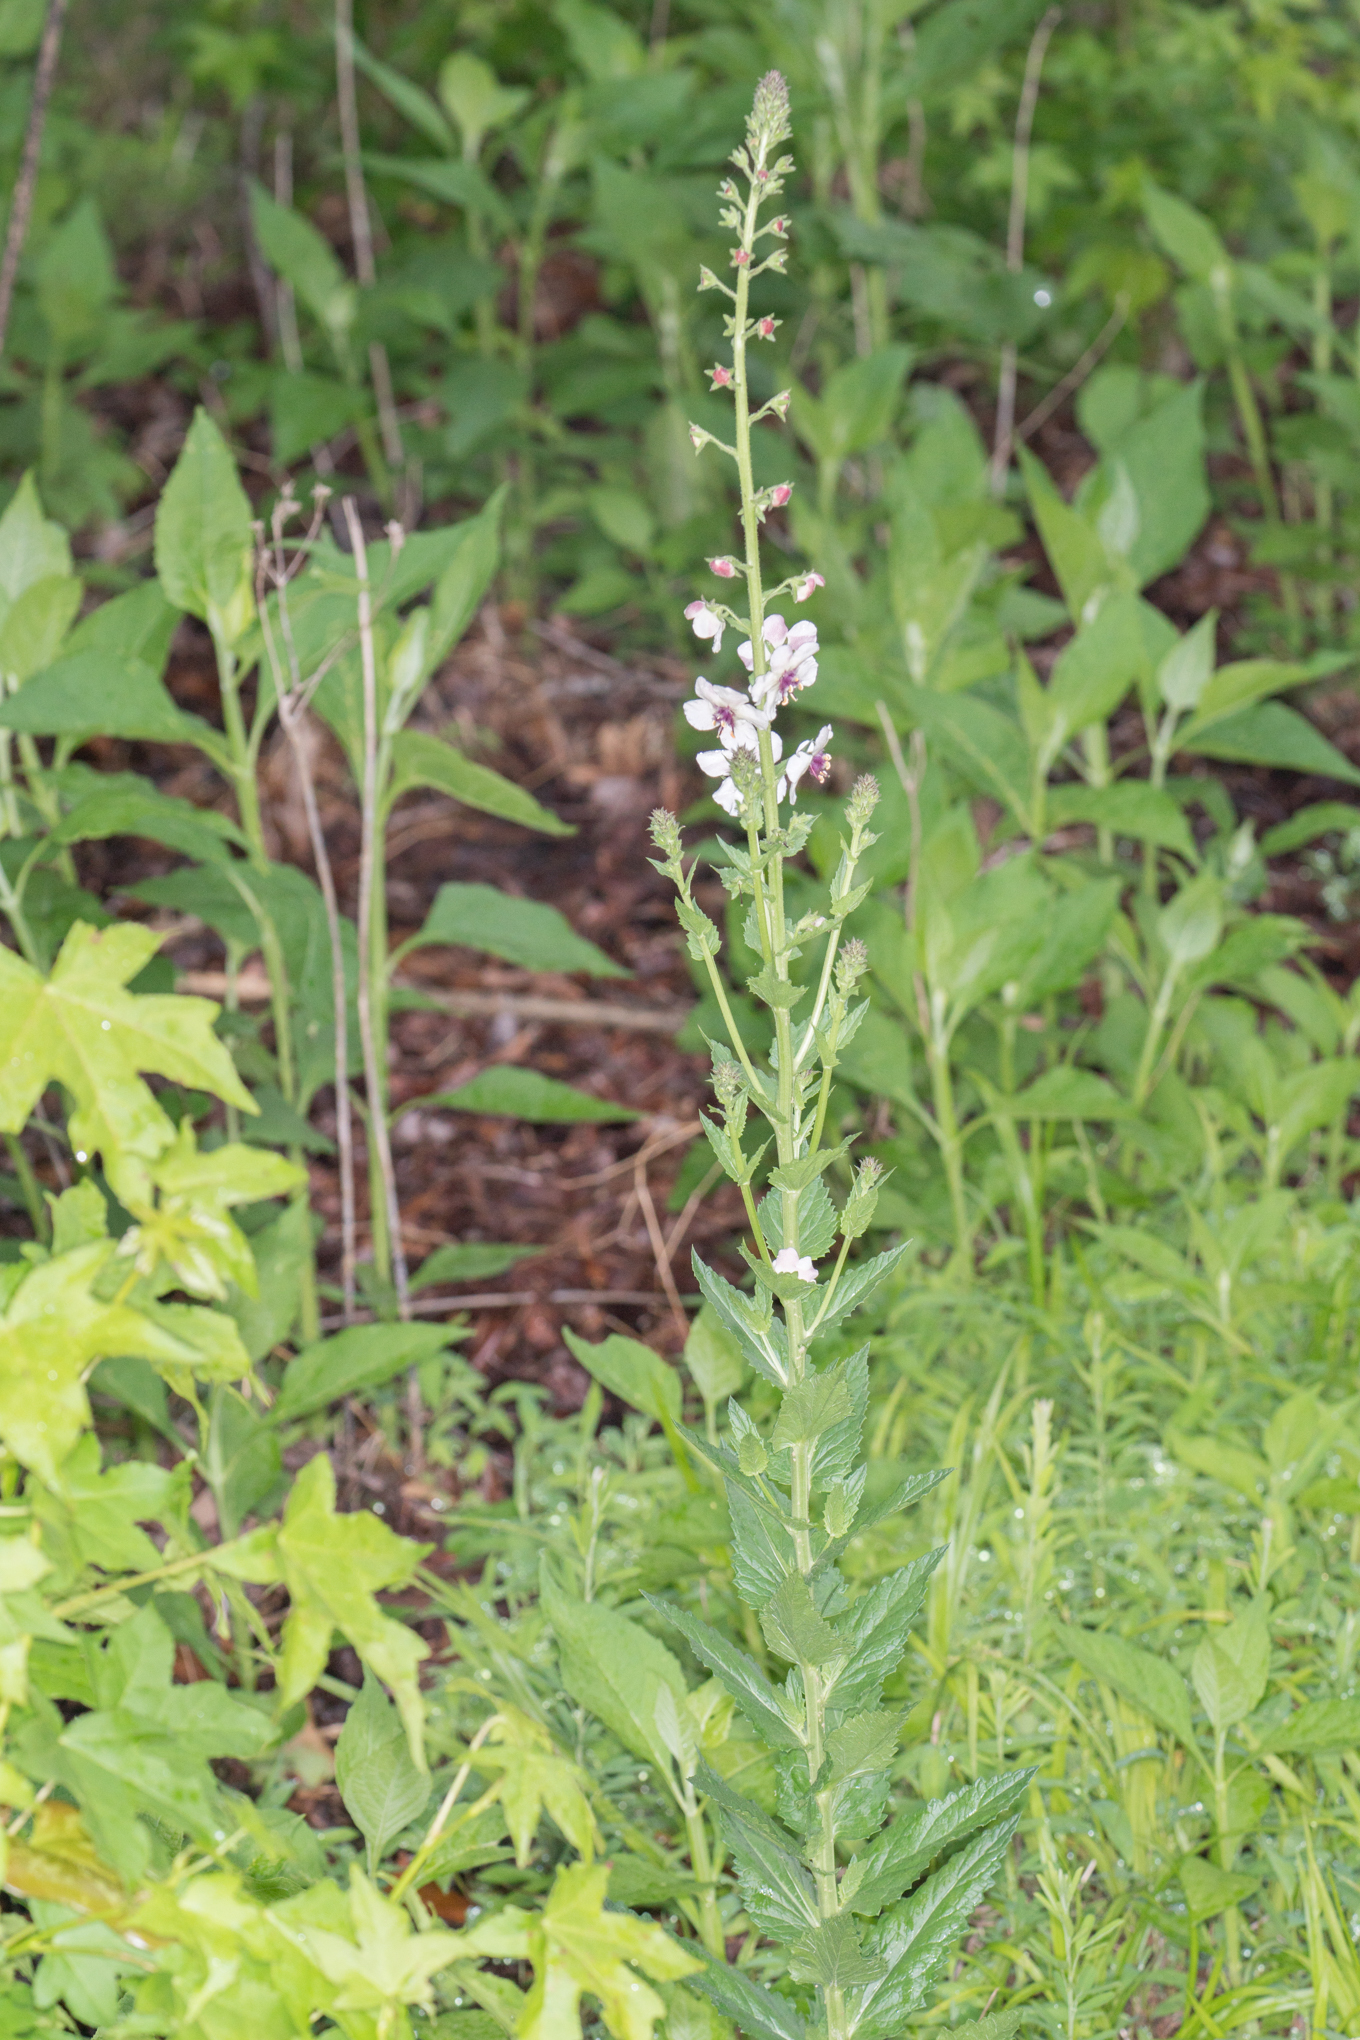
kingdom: Plantae
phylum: Tracheophyta
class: Magnoliopsida
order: Lamiales
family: Scrophulariaceae
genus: Verbascum
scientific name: Verbascum blattaria
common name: Moth mullein
